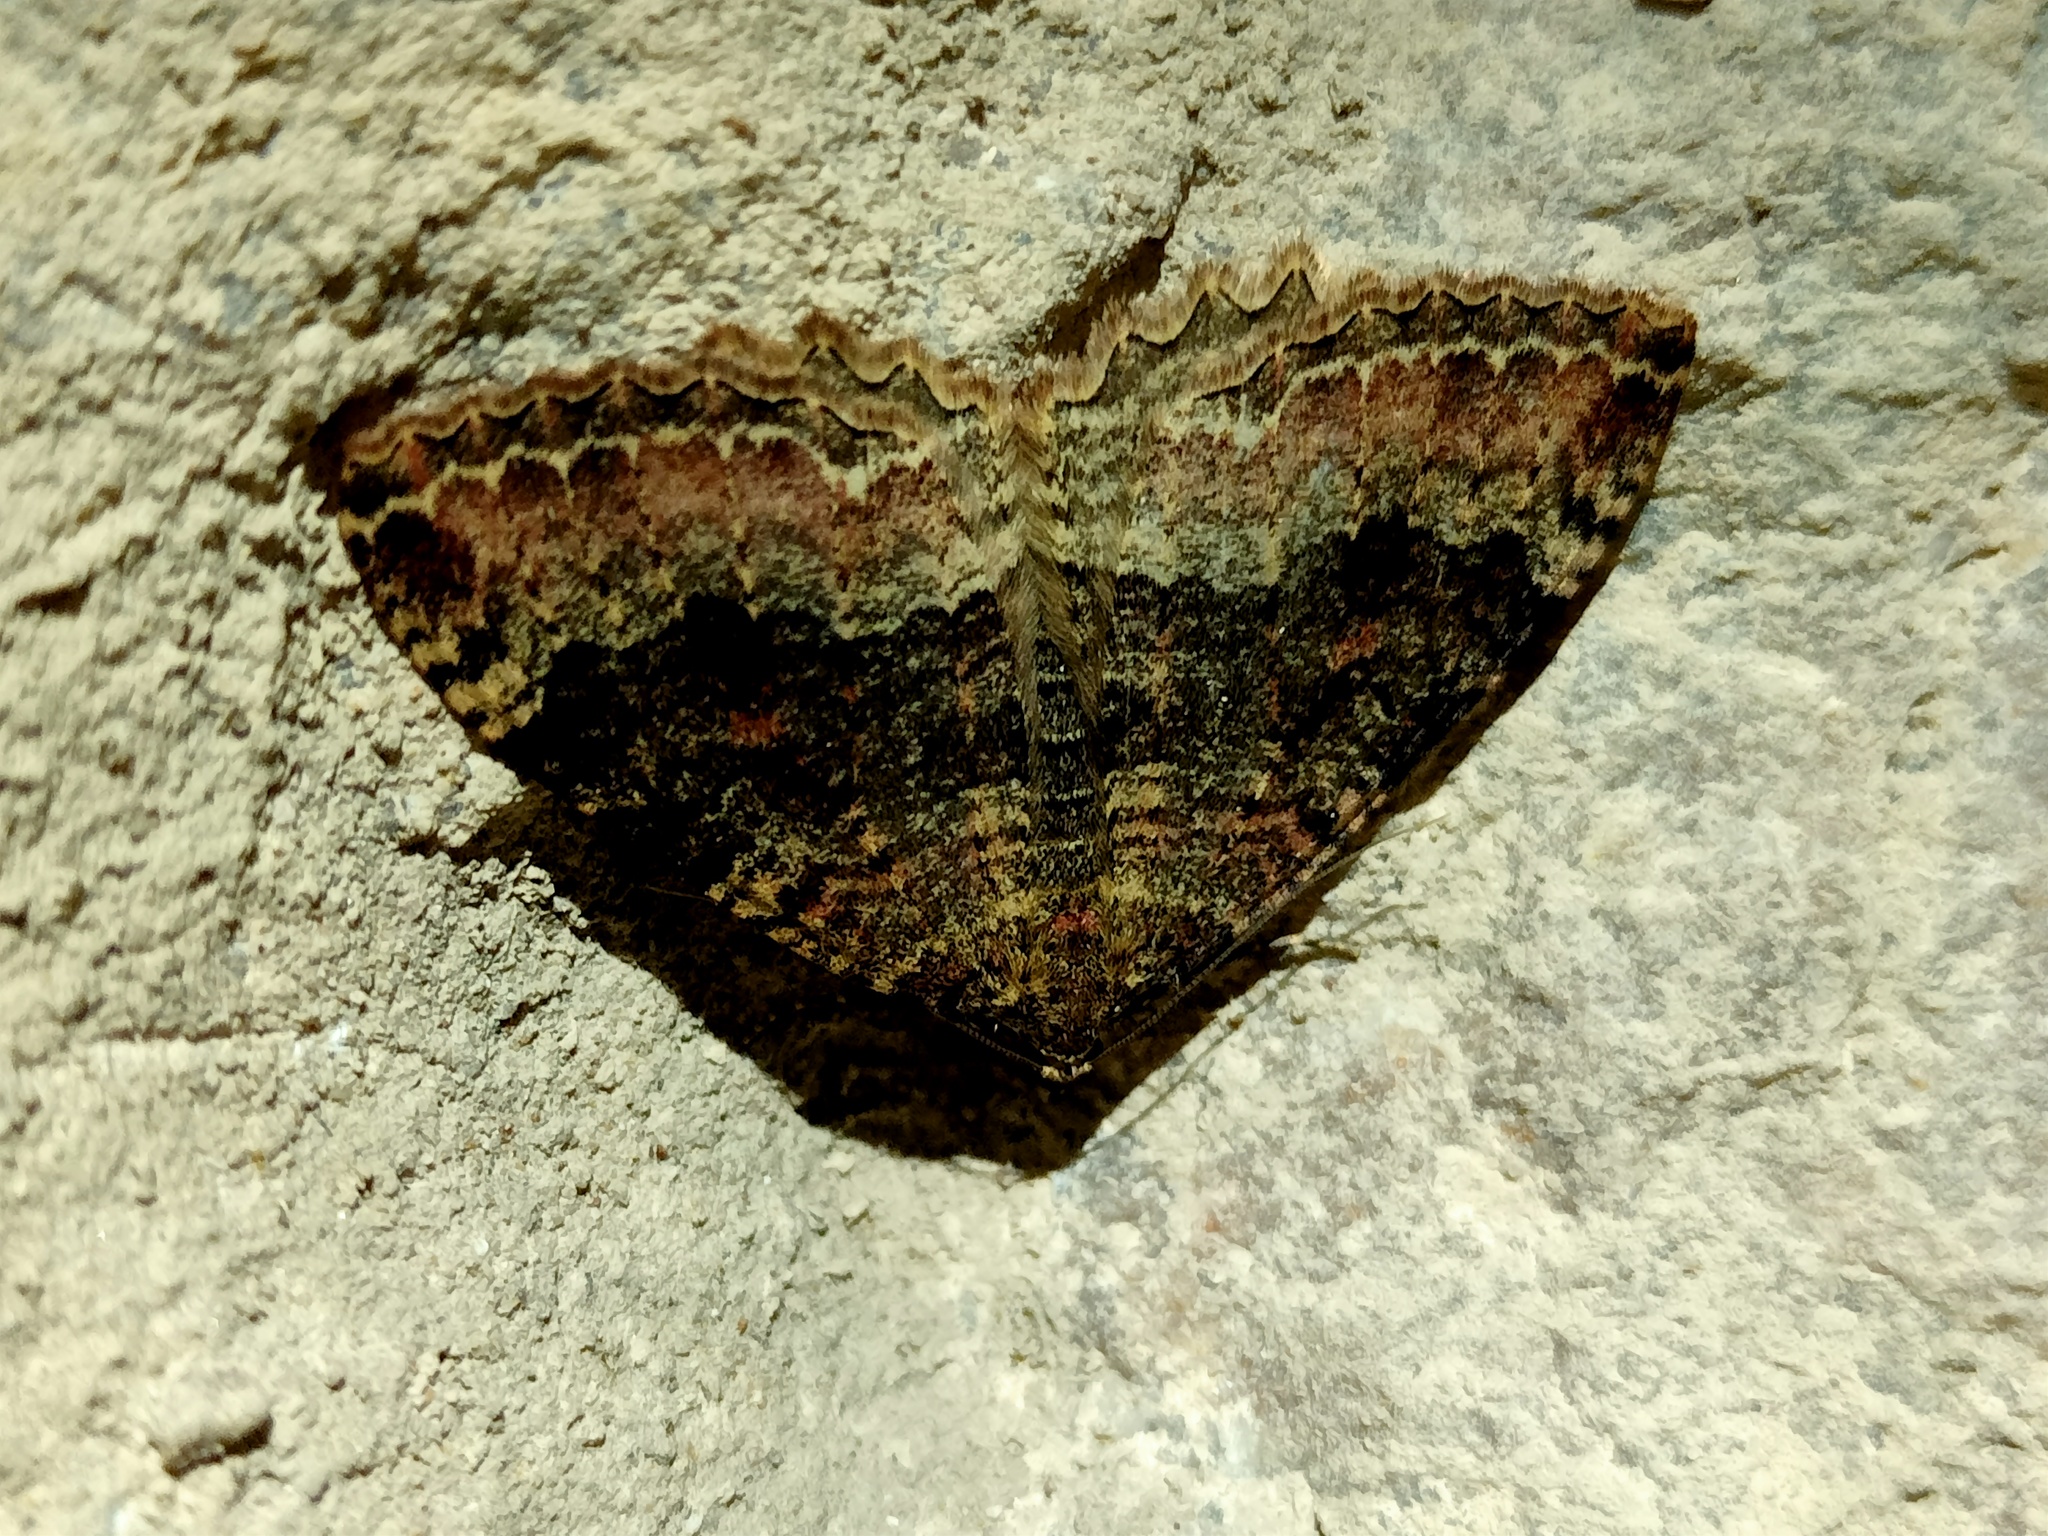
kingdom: Animalia
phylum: Arthropoda
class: Insecta
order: Lepidoptera
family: Geometridae
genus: Triphosa
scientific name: Triphosa dubitata
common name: Tissue
